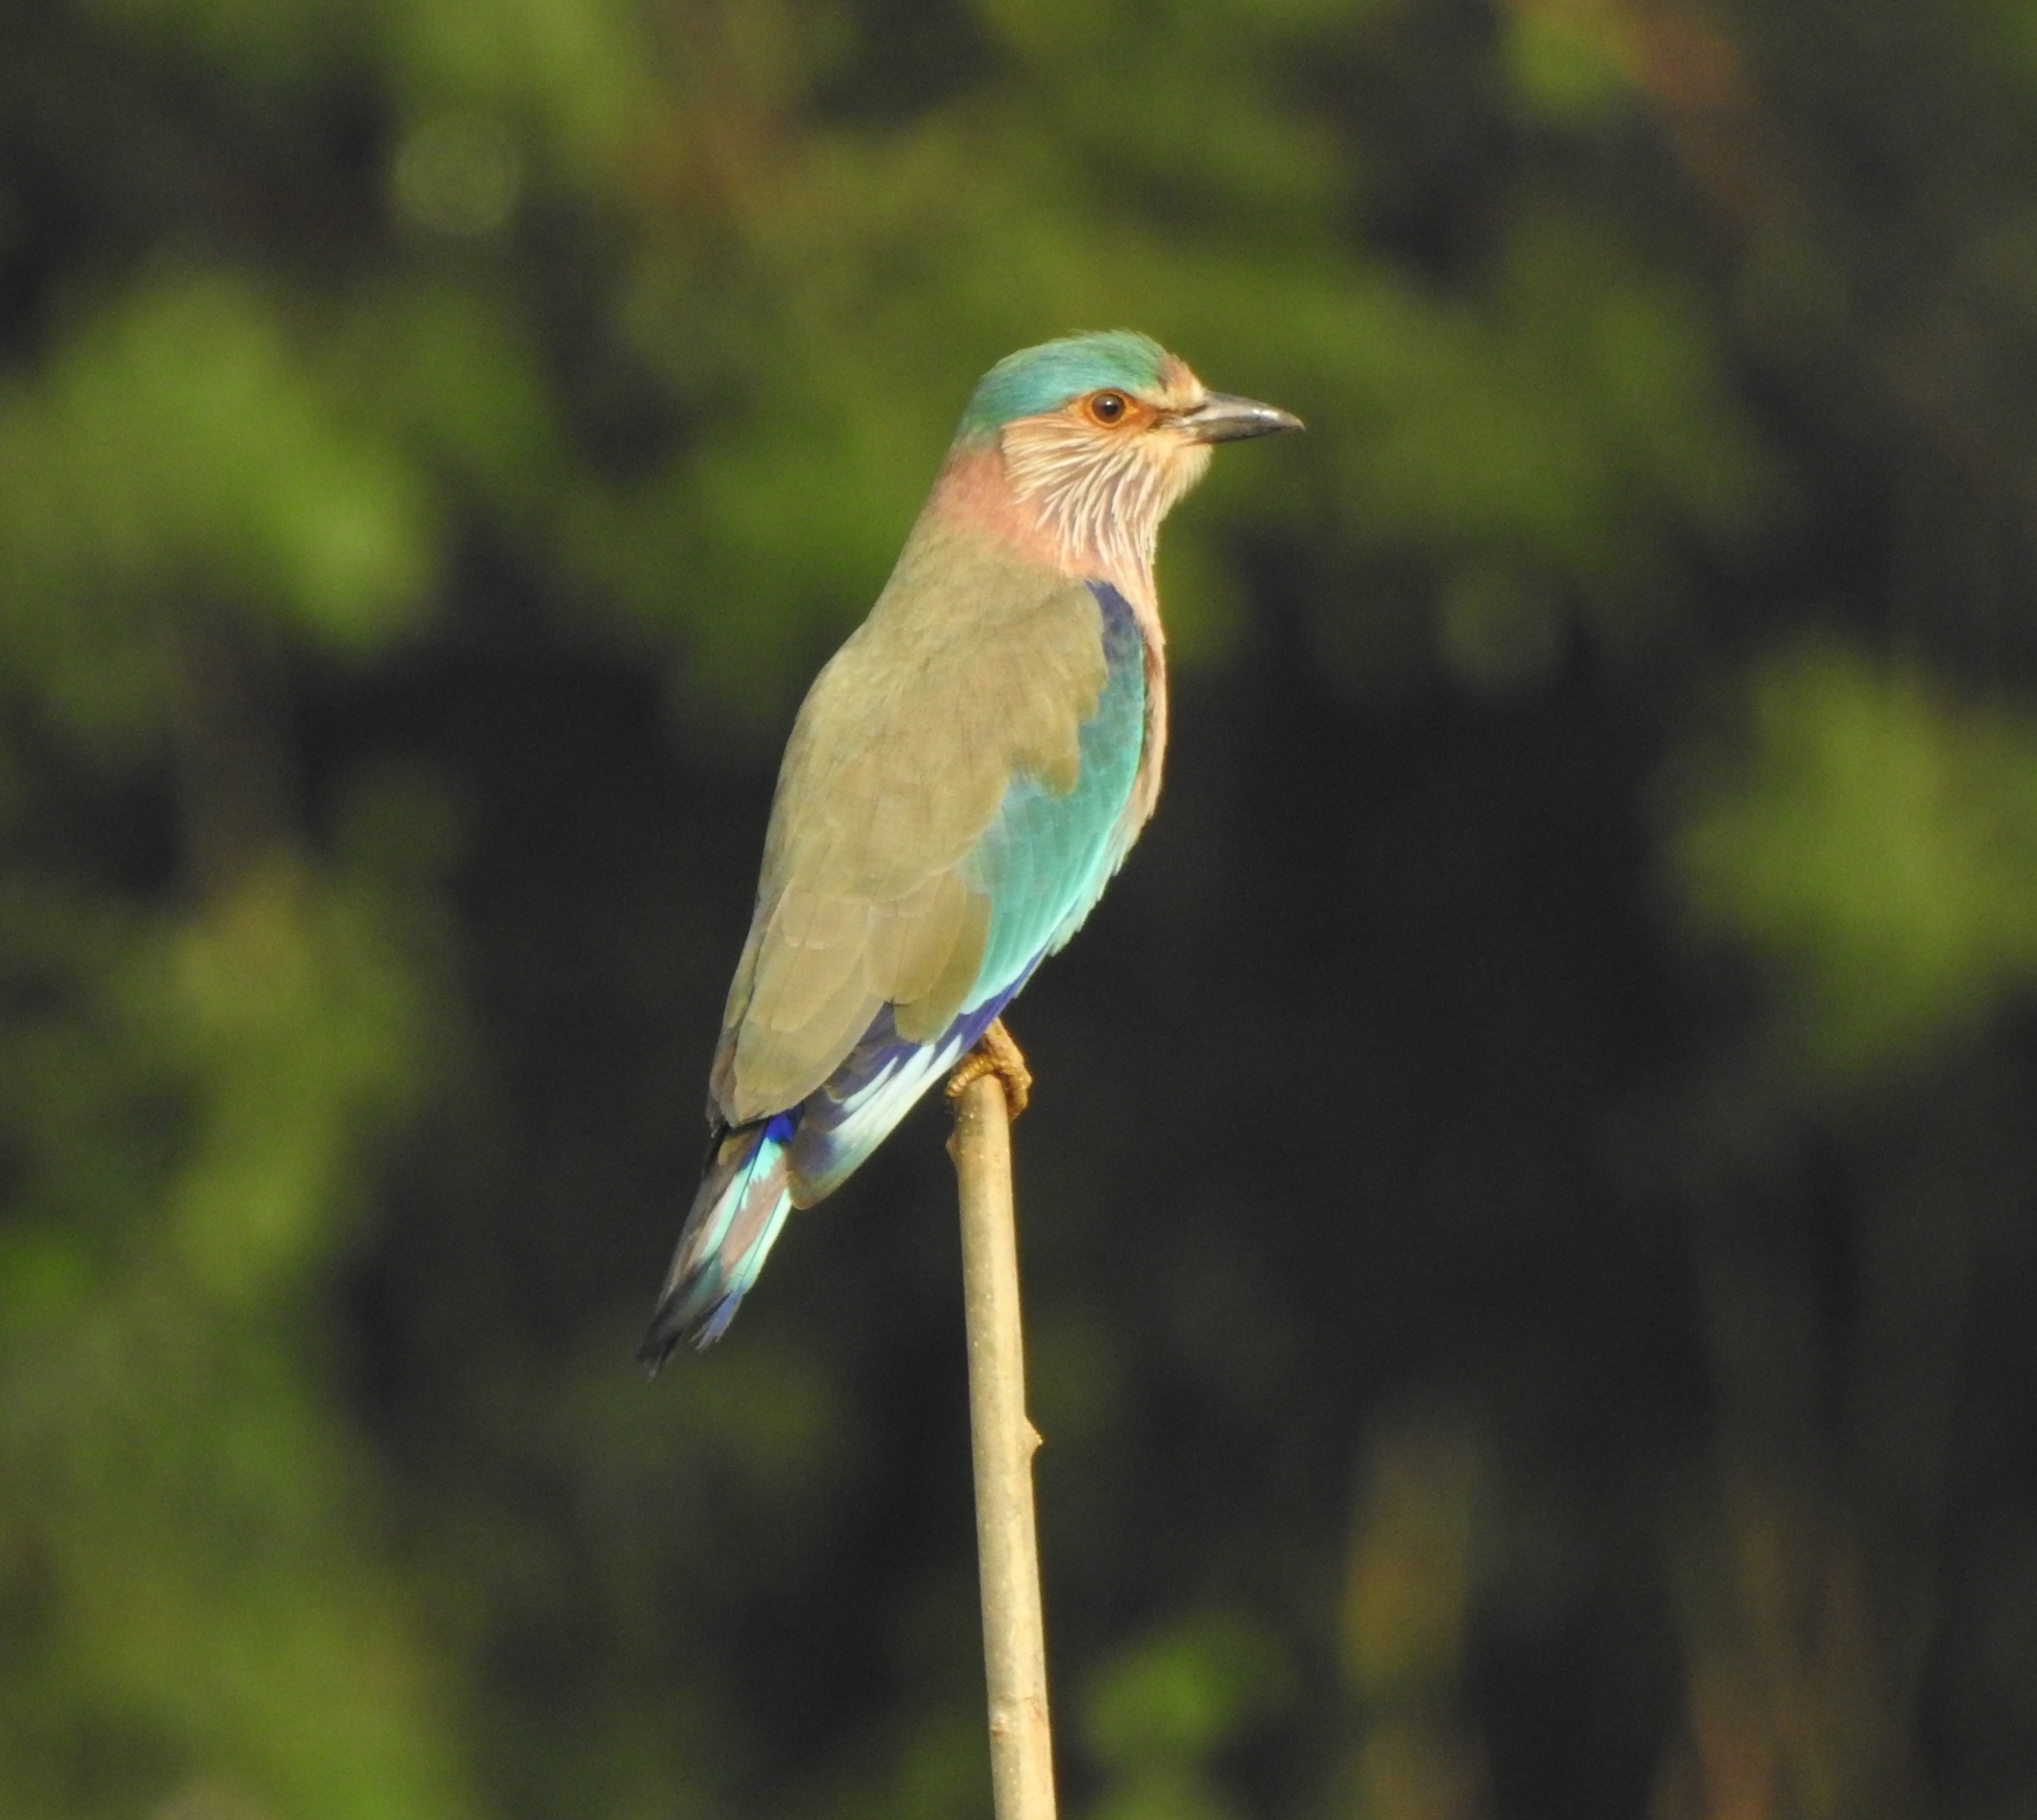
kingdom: Animalia
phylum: Chordata
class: Aves
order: Coraciiformes
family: Coraciidae
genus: Coracias
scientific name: Coracias benghalensis
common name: Indian roller
